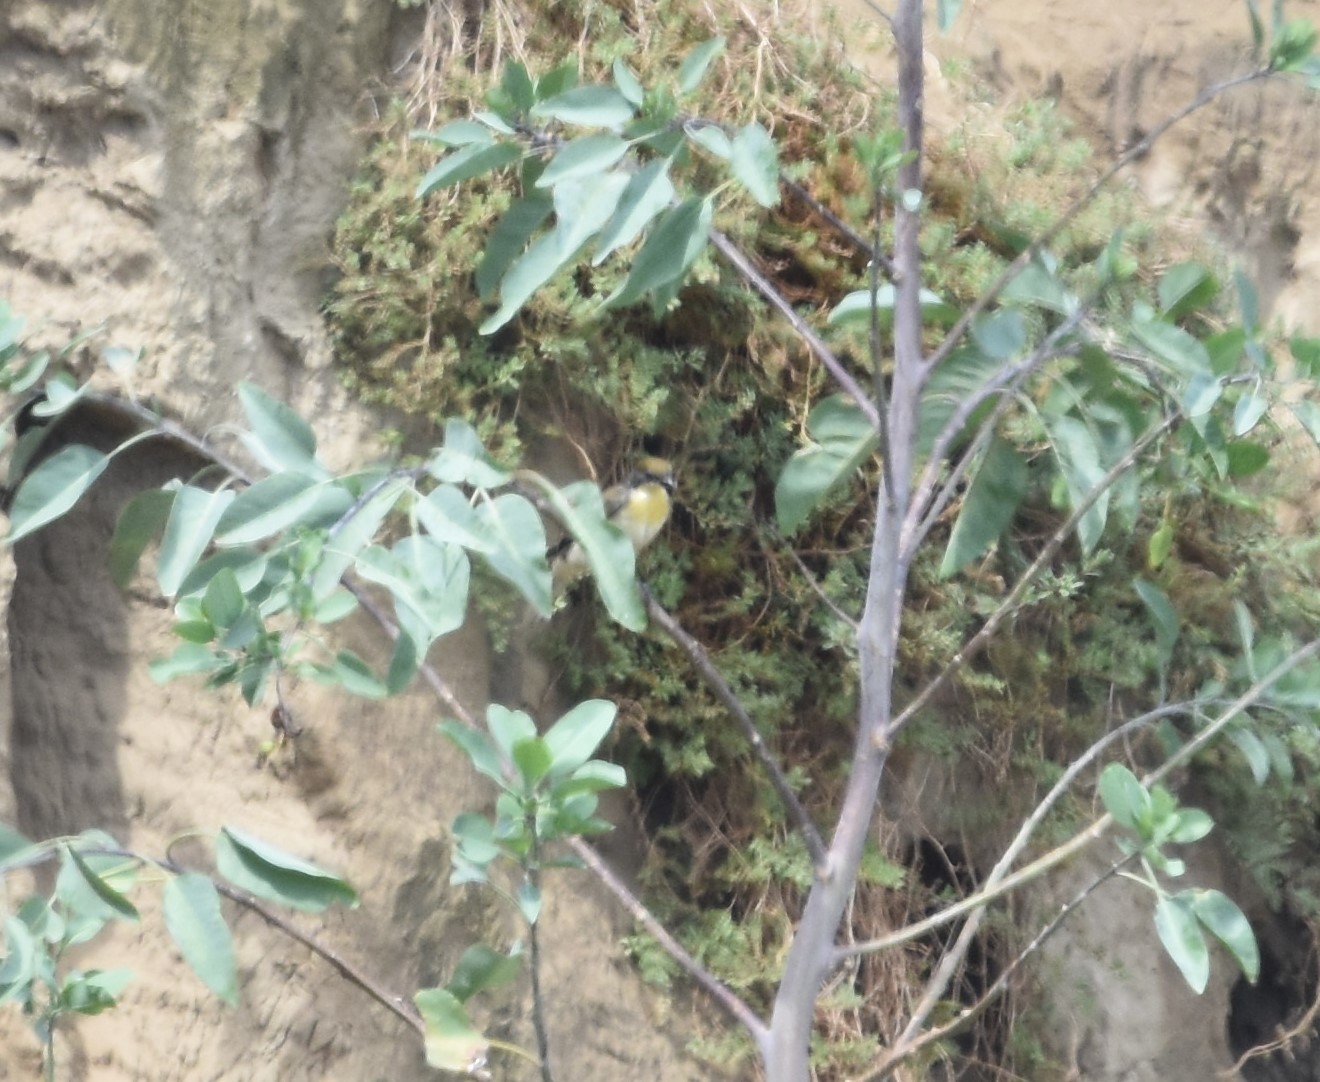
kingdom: Animalia
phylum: Chordata
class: Aves
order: Piciformes
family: Indicatoridae
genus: Indicator
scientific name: Indicator indicator
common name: Greater honeyguide
